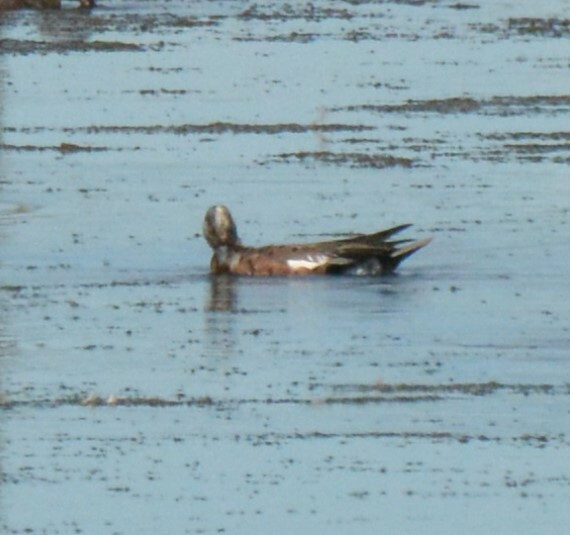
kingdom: Animalia
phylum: Chordata
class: Aves
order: Anseriformes
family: Anatidae
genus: Mareca
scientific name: Mareca americana
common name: American wigeon
